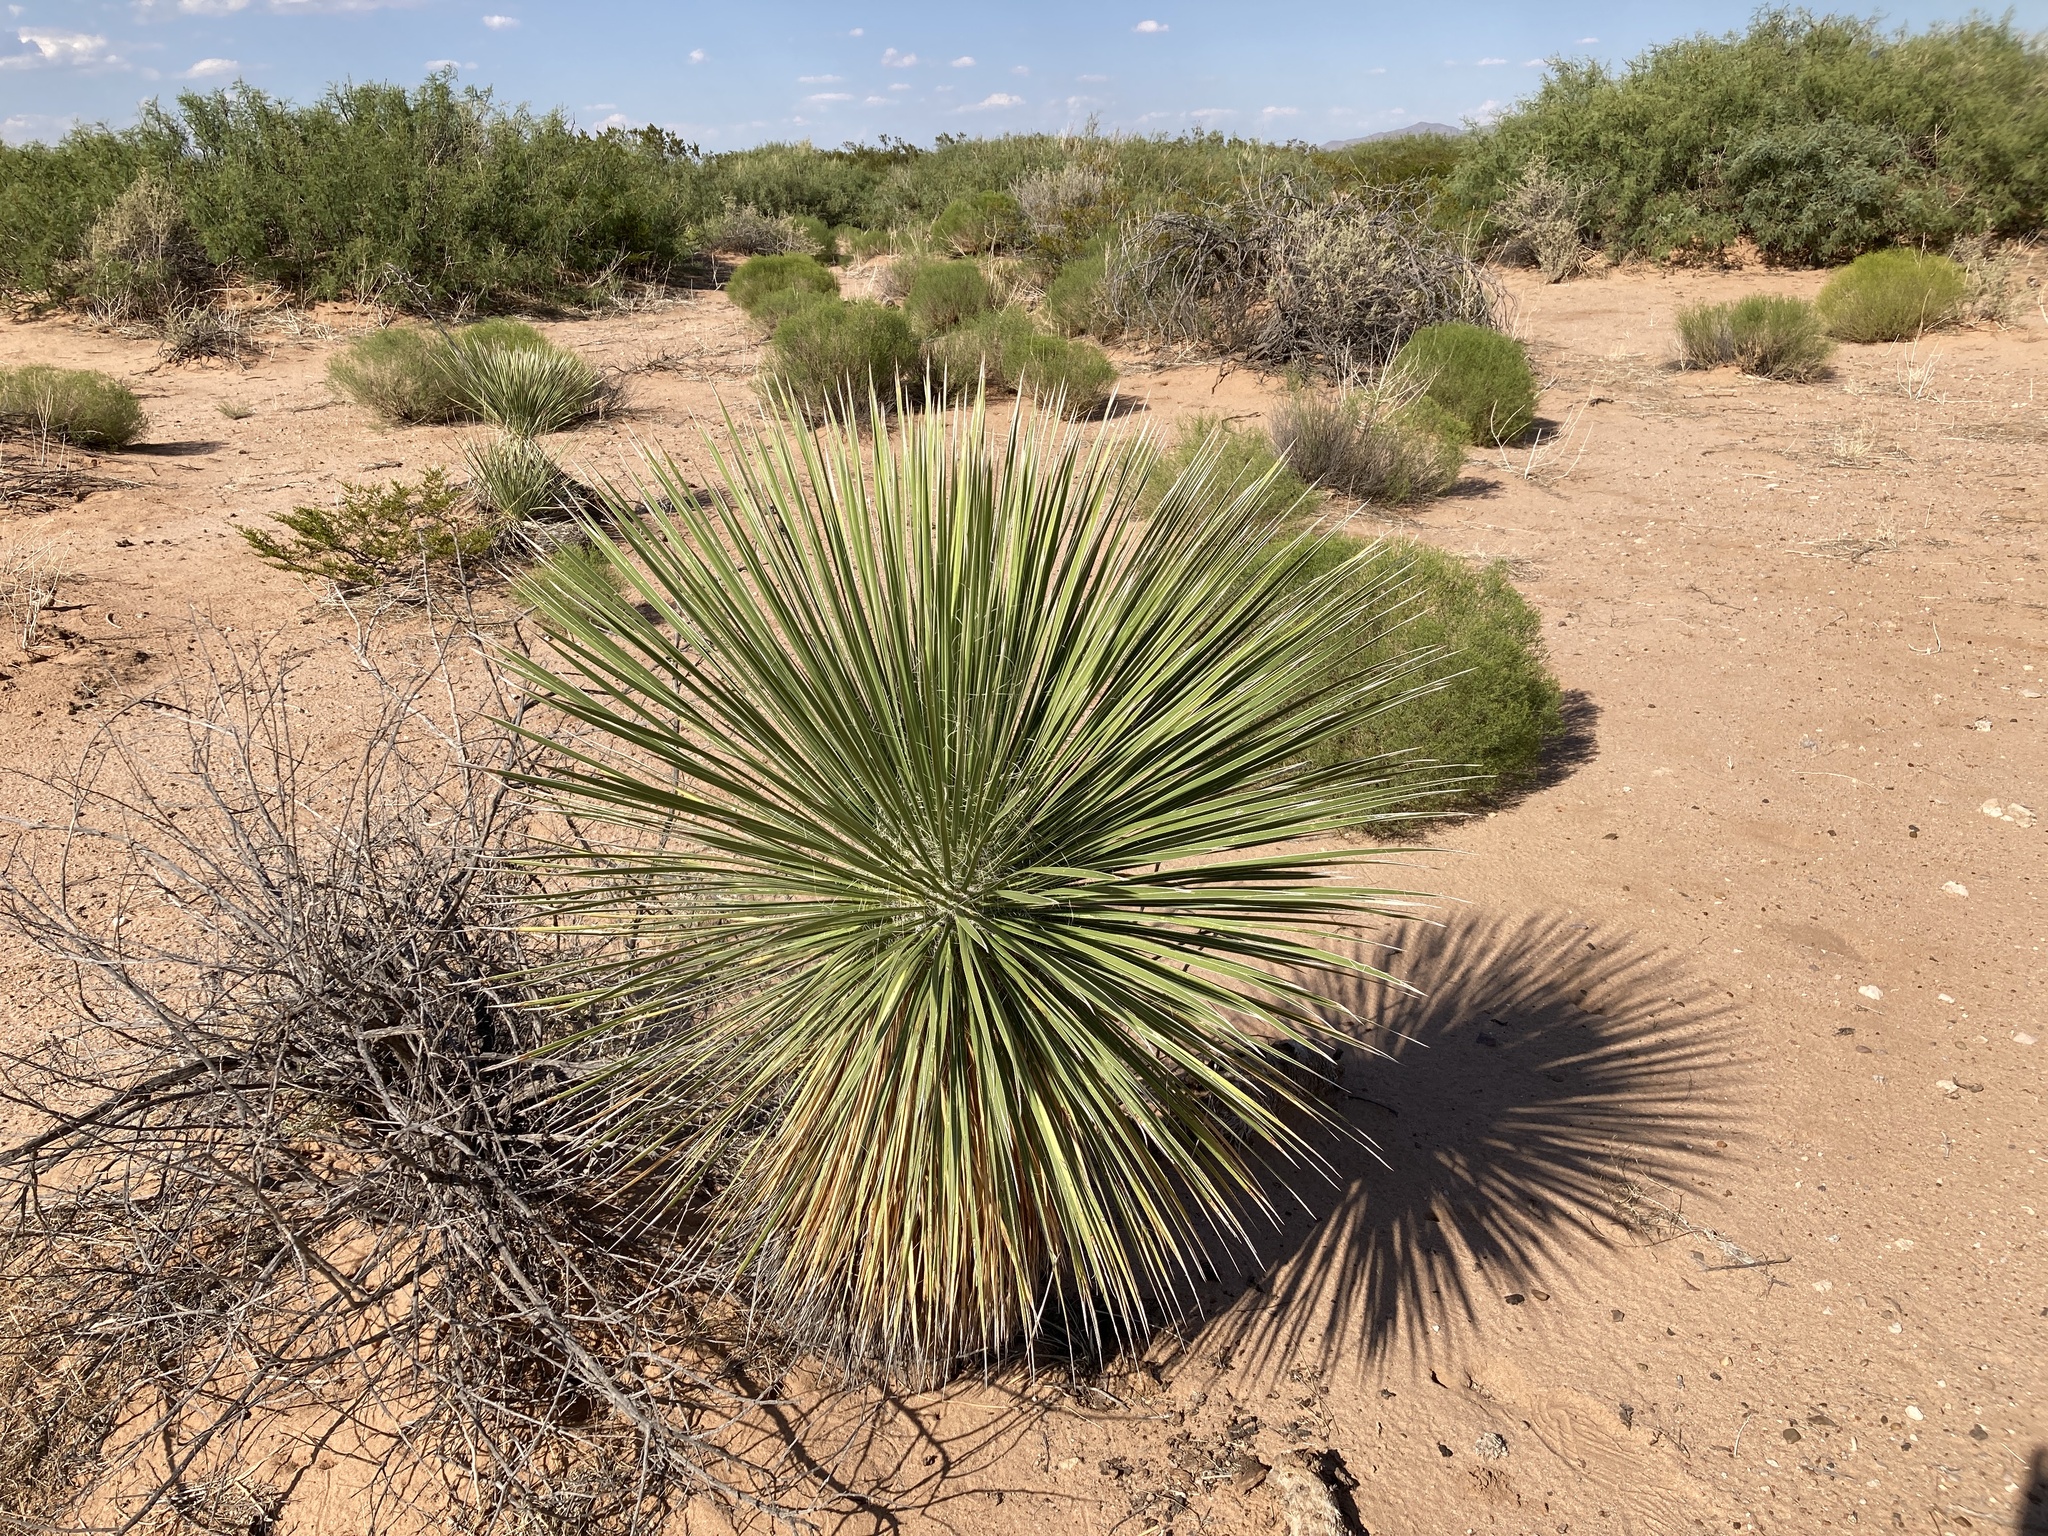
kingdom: Plantae
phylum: Tracheophyta
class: Liliopsida
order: Asparagales
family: Asparagaceae
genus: Yucca
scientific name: Yucca elata
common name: Palmella
